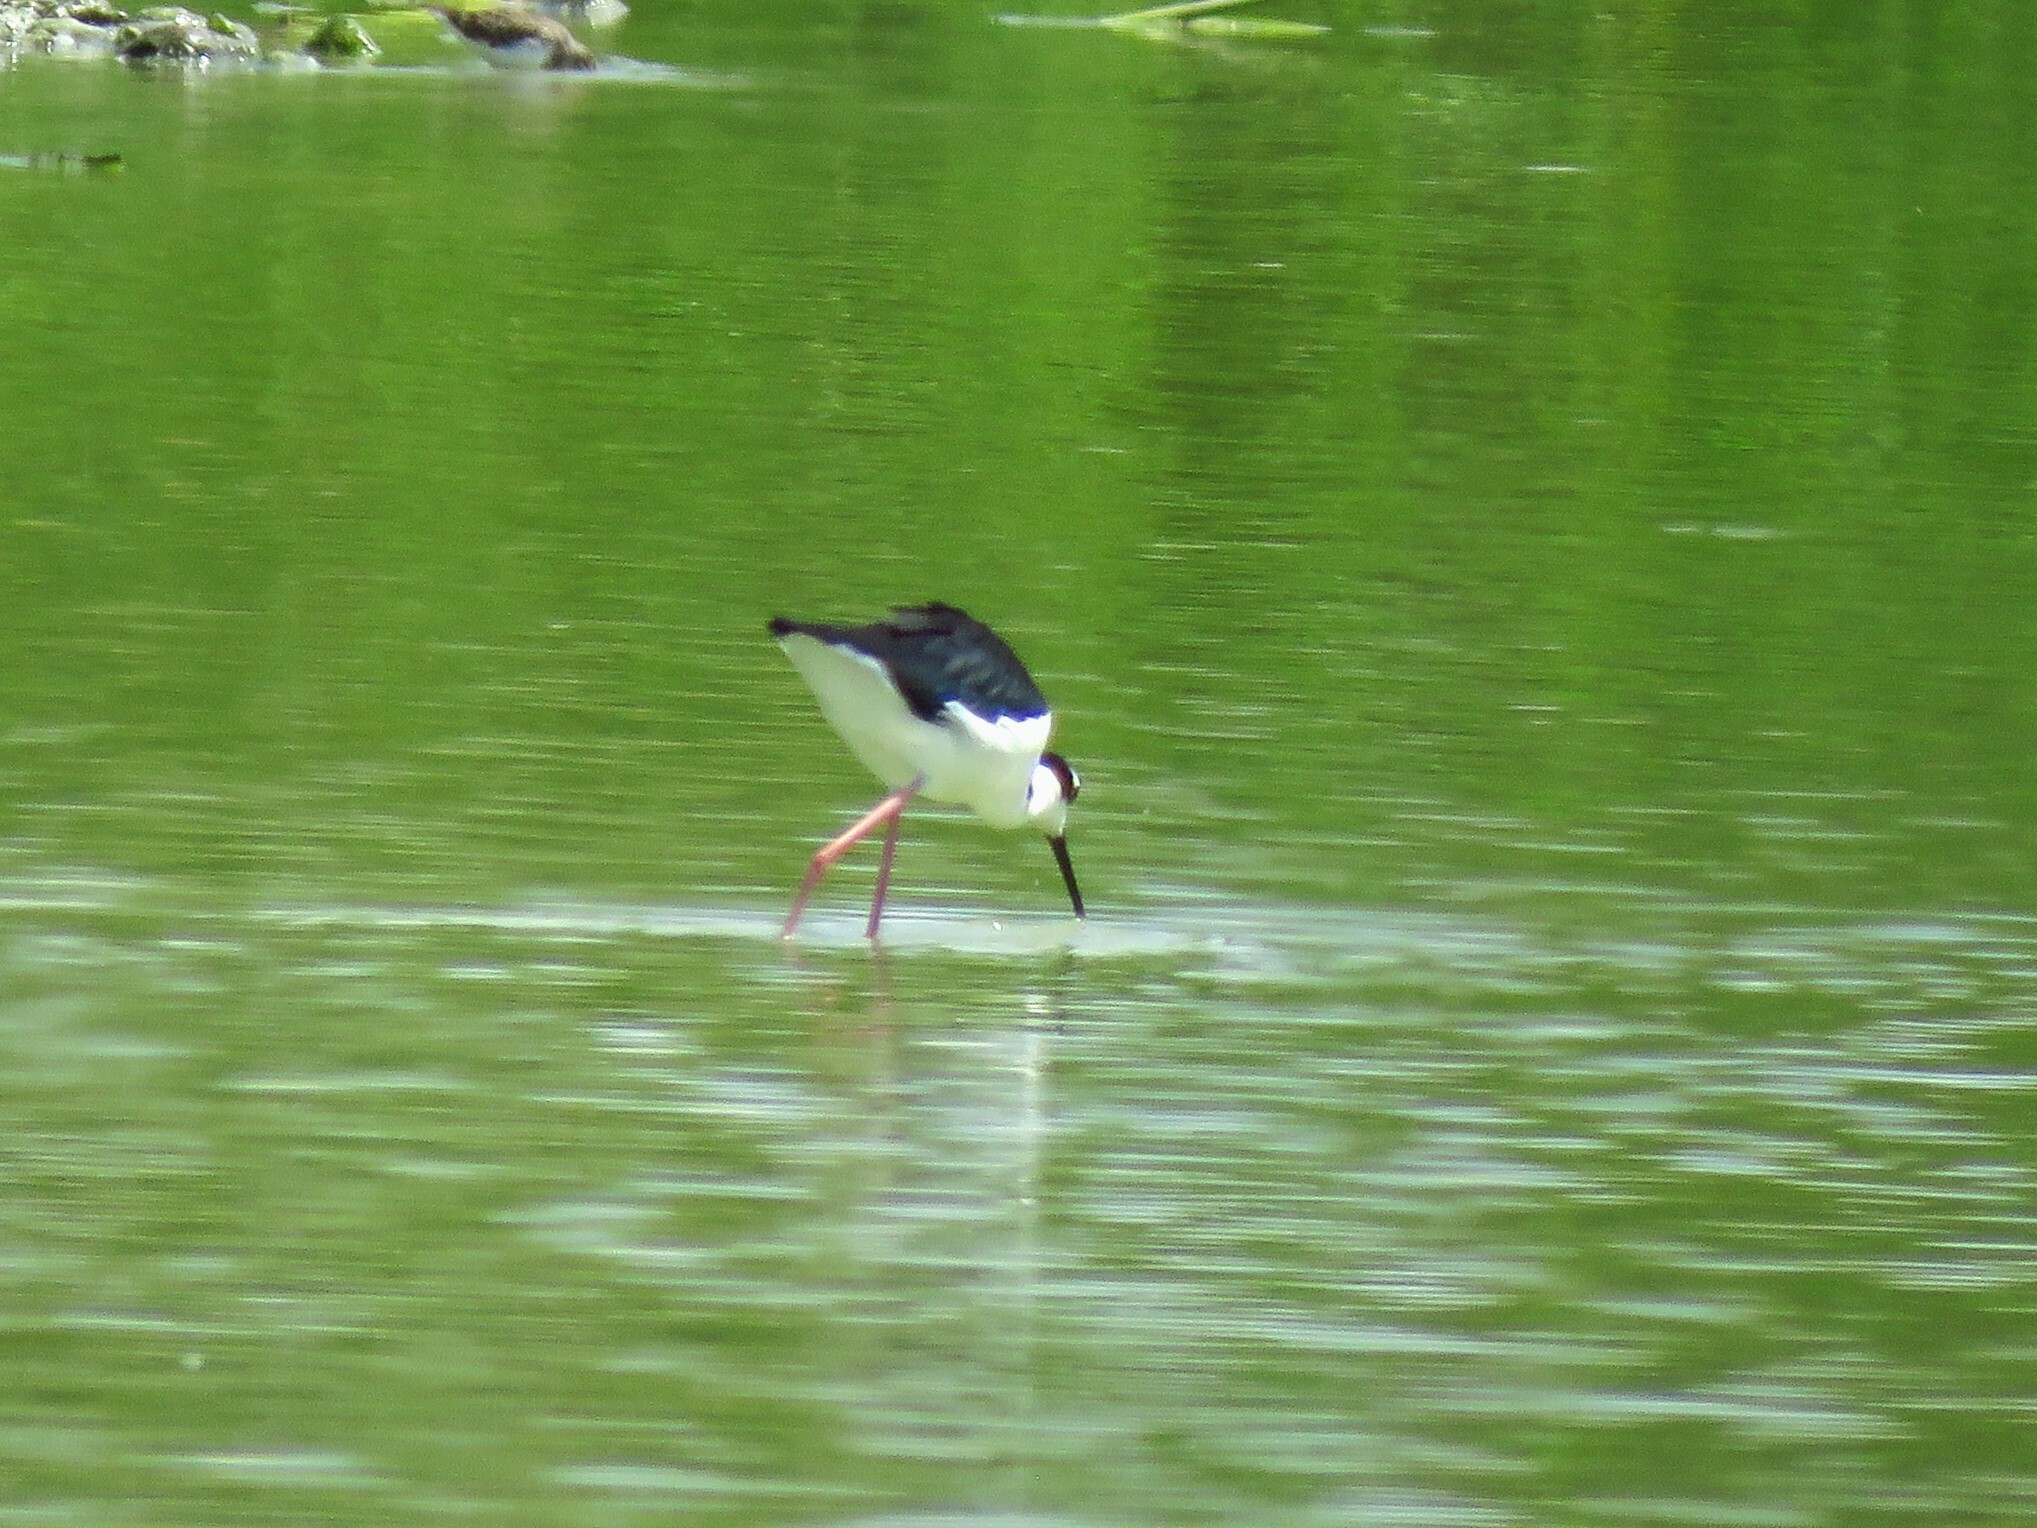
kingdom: Animalia
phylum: Chordata
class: Aves
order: Charadriiformes
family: Recurvirostridae
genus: Himantopus
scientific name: Himantopus mexicanus
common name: Black-necked stilt
